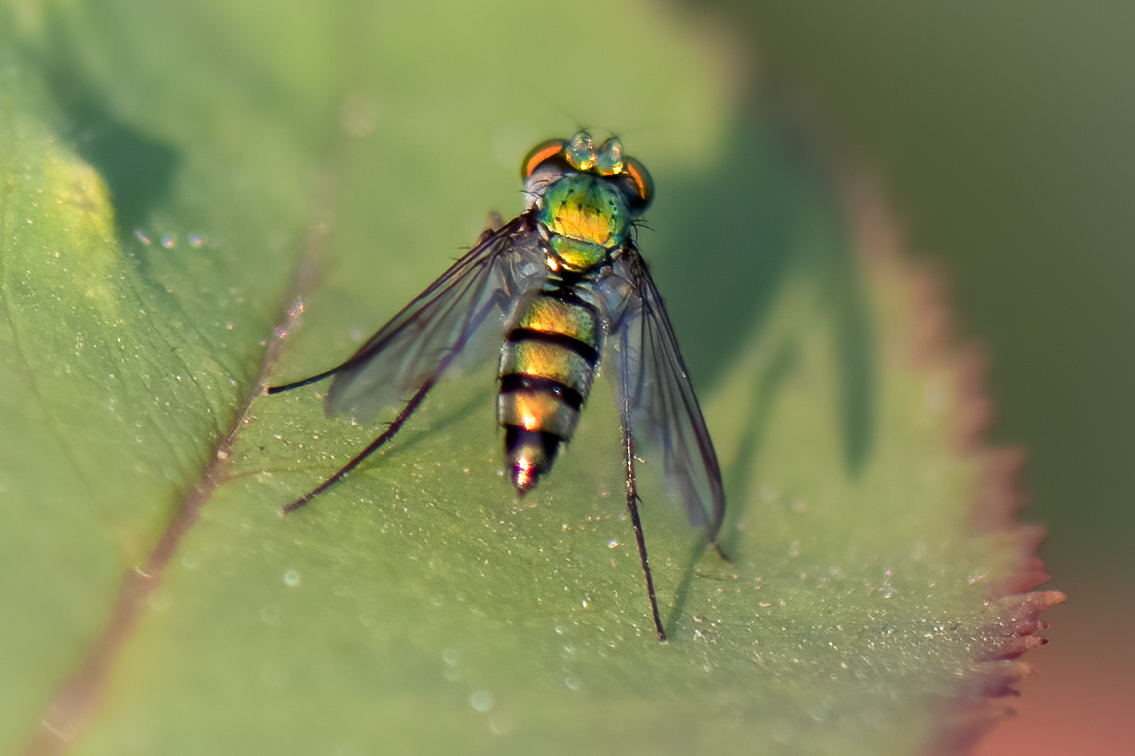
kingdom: Animalia
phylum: Arthropoda
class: Insecta
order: Diptera
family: Dolichopodidae
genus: Condylostylus
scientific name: Condylostylus longicornis
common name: Long-legged fly
